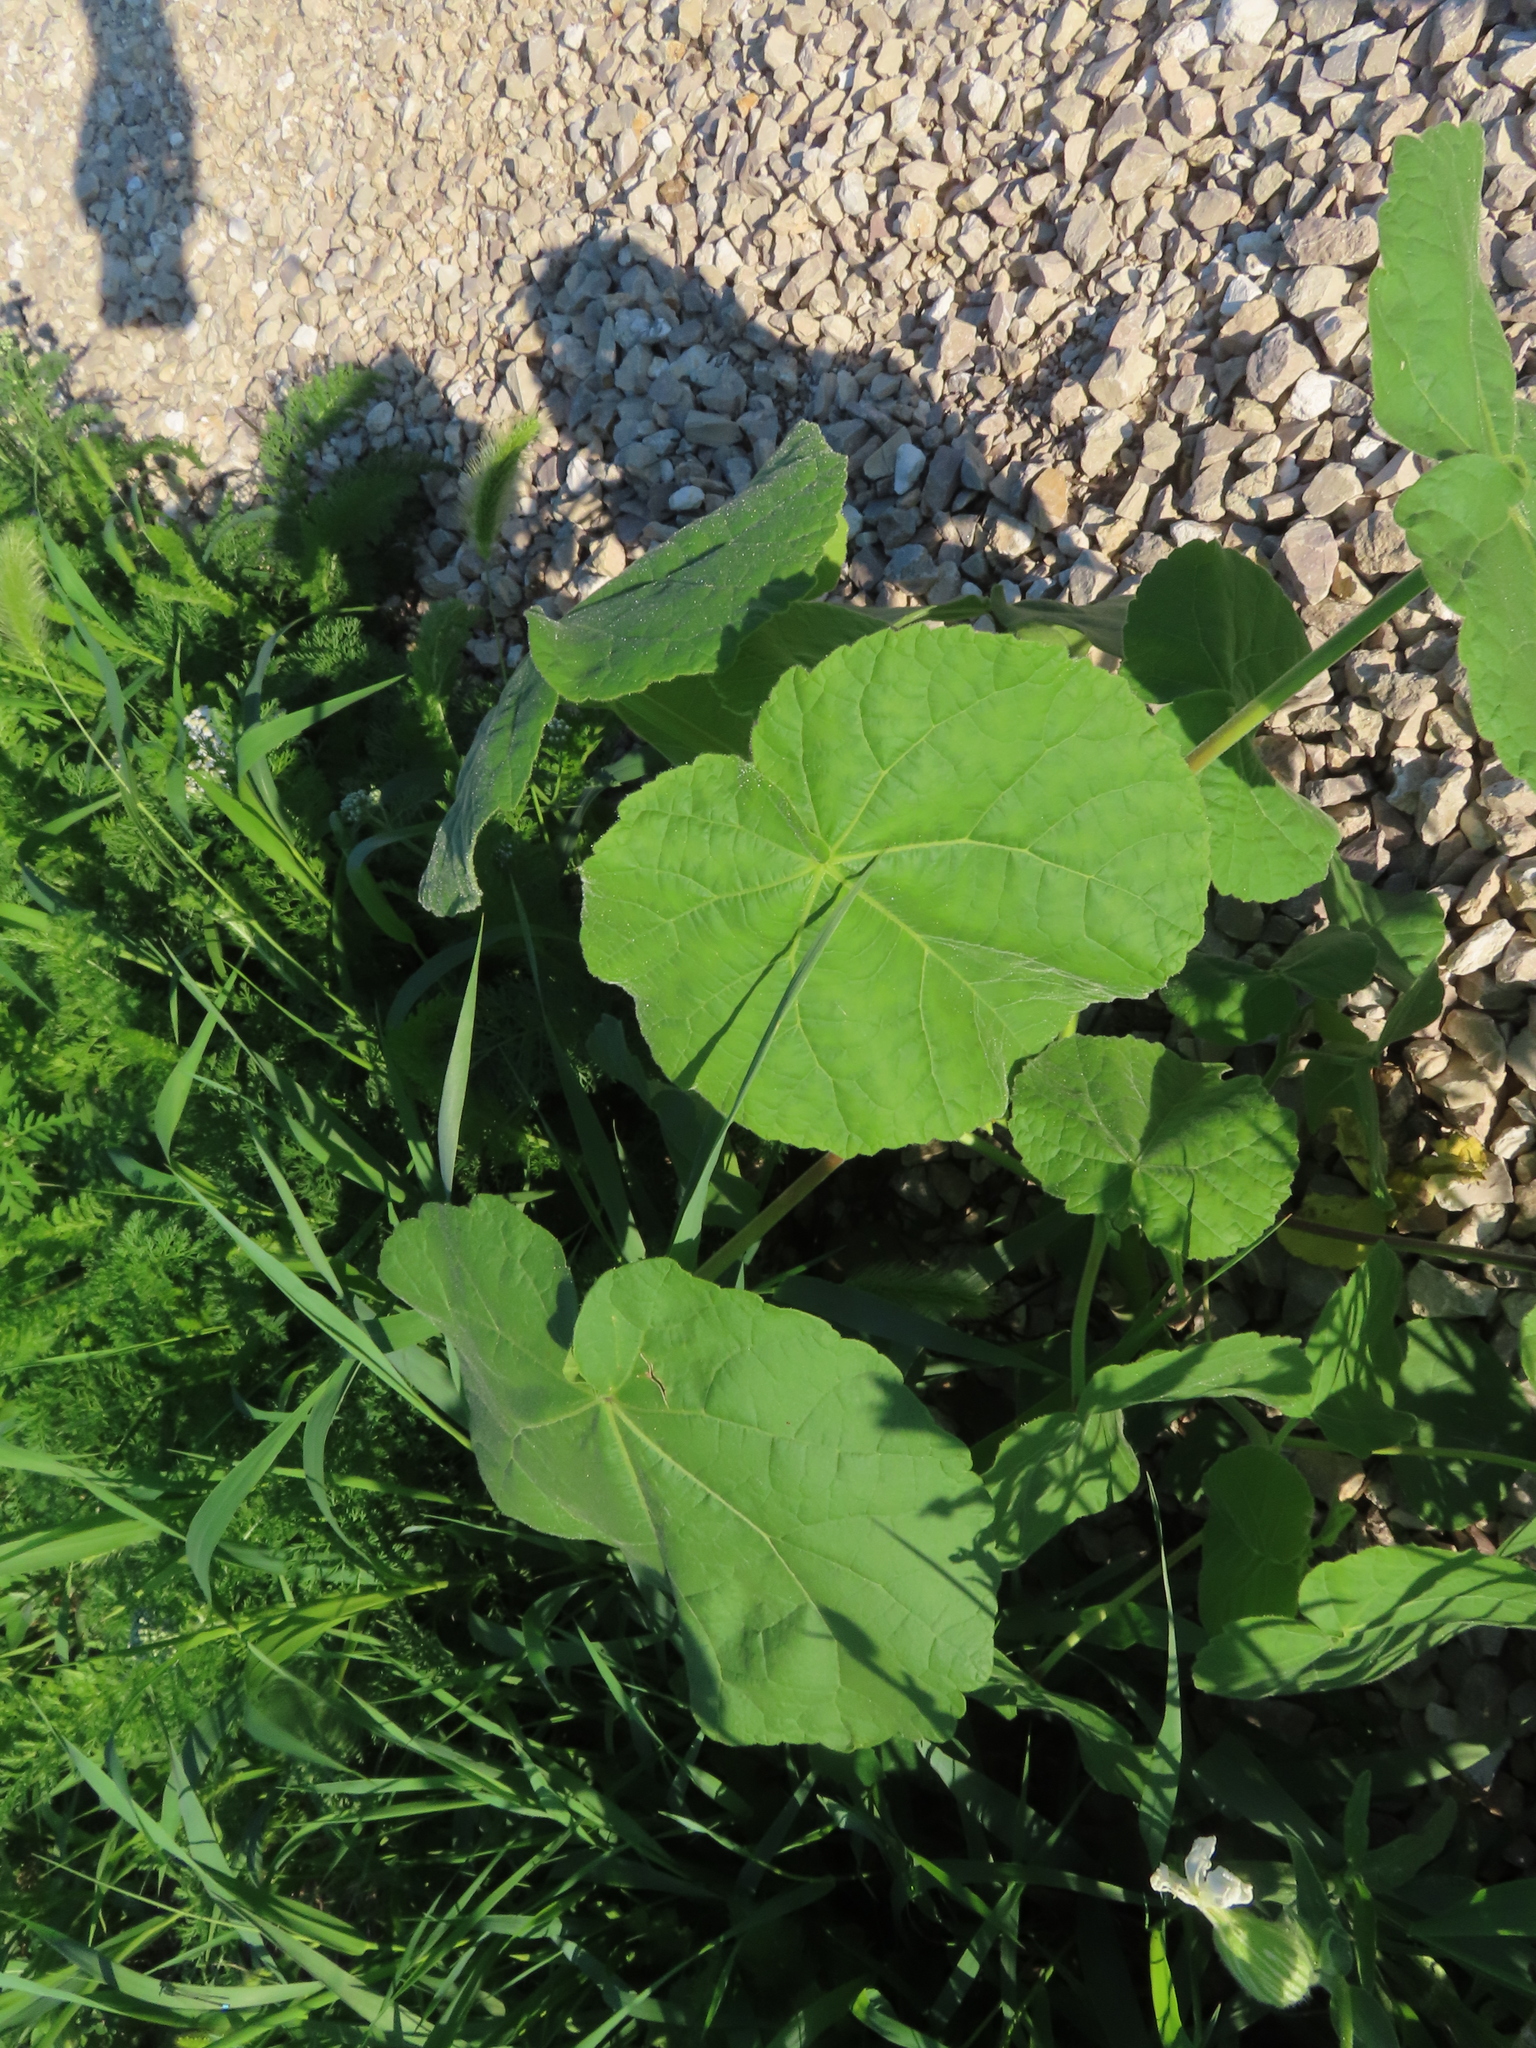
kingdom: Plantae
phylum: Tracheophyta
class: Magnoliopsida
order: Malvales
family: Malvaceae
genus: Abutilon
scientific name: Abutilon theophrasti
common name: Velvetleaf
